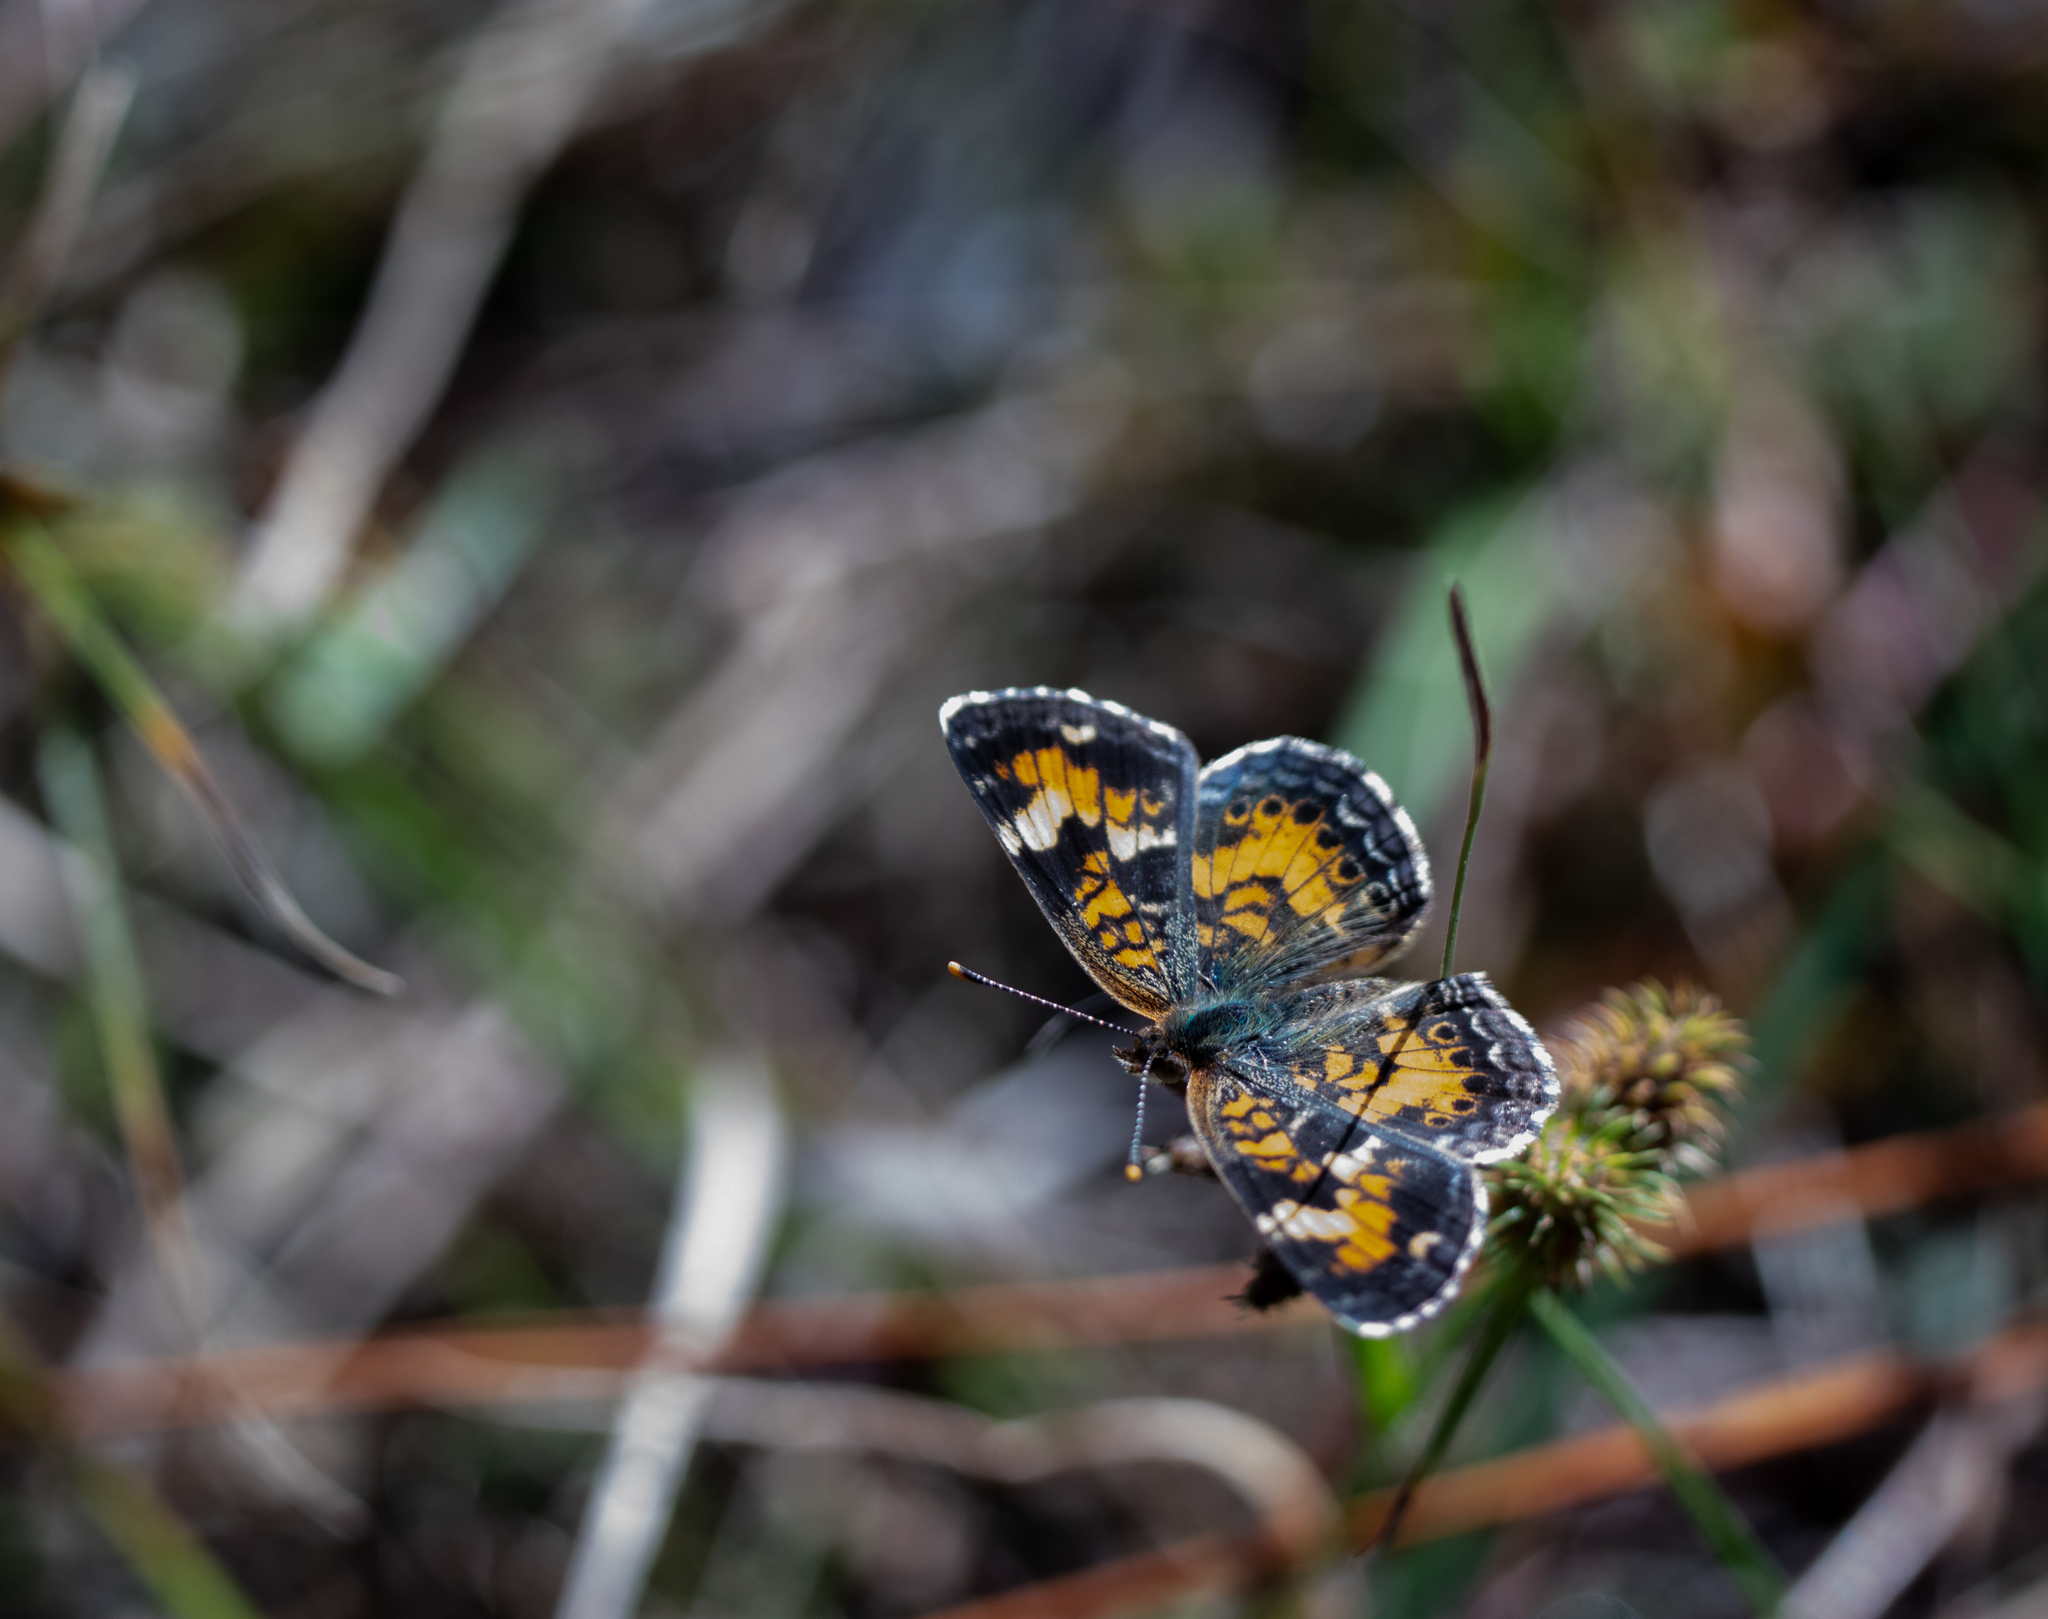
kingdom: Animalia
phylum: Arthropoda
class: Insecta
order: Lepidoptera
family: Nymphalidae
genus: Phyciodes
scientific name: Phyciodes phaon
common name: Phaon crescent
